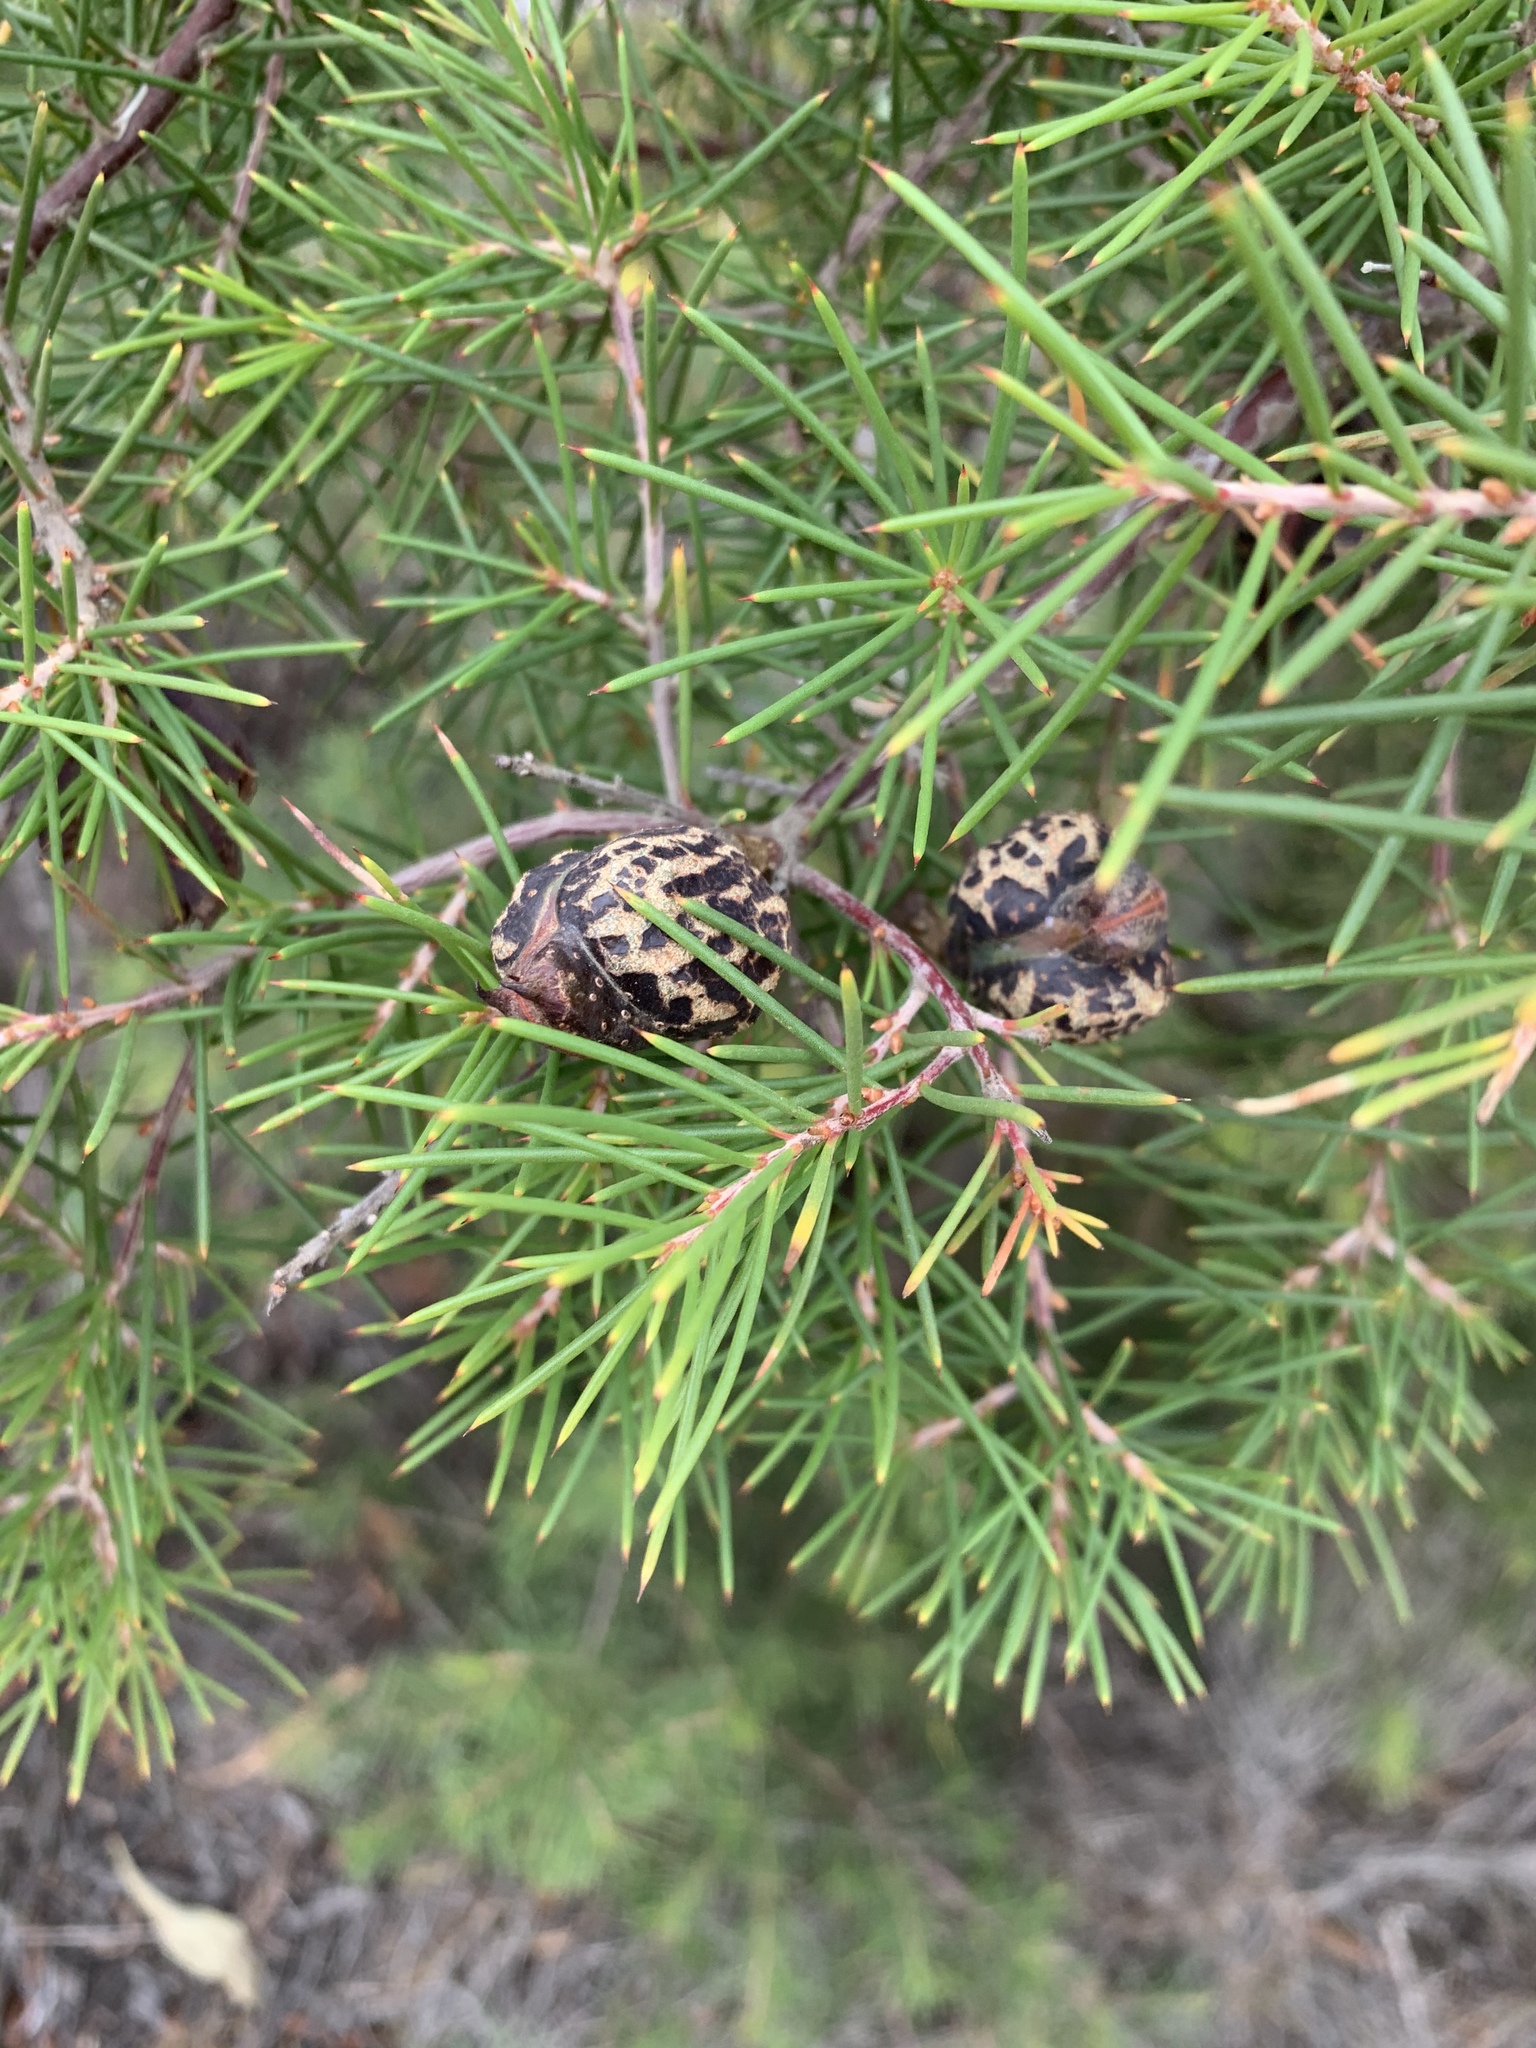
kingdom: Plantae
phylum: Tracheophyta
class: Magnoliopsida
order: Proteales
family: Proteaceae
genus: Hakea
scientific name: Hakea sericea
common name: Needle bush
